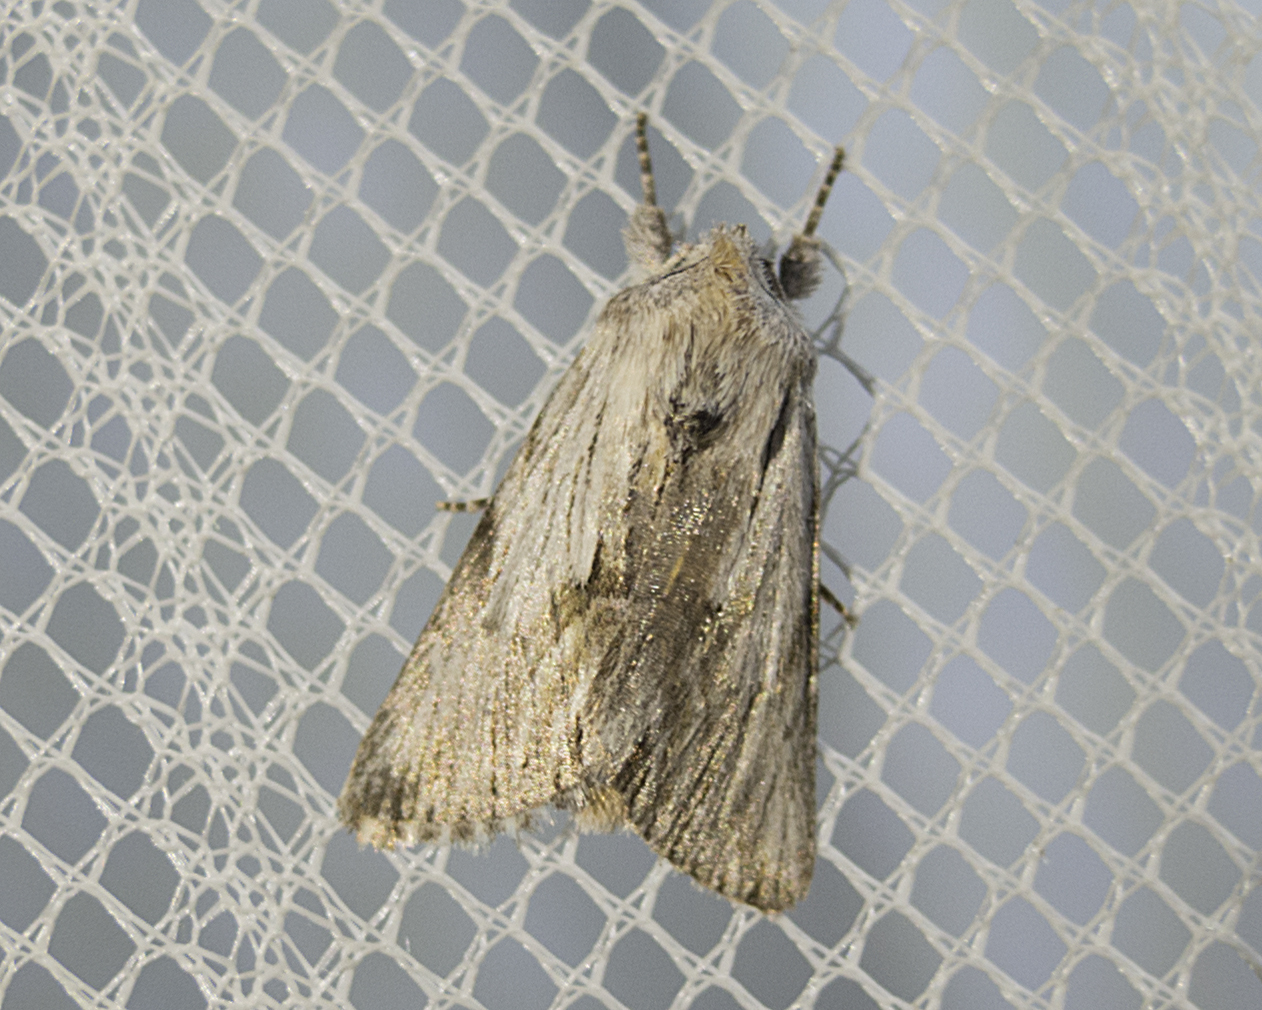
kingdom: Animalia
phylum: Arthropoda
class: Insecta
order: Lepidoptera
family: Noctuidae
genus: Calophasia
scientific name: Calophasia platyptera
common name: Antirrhinum brocade
